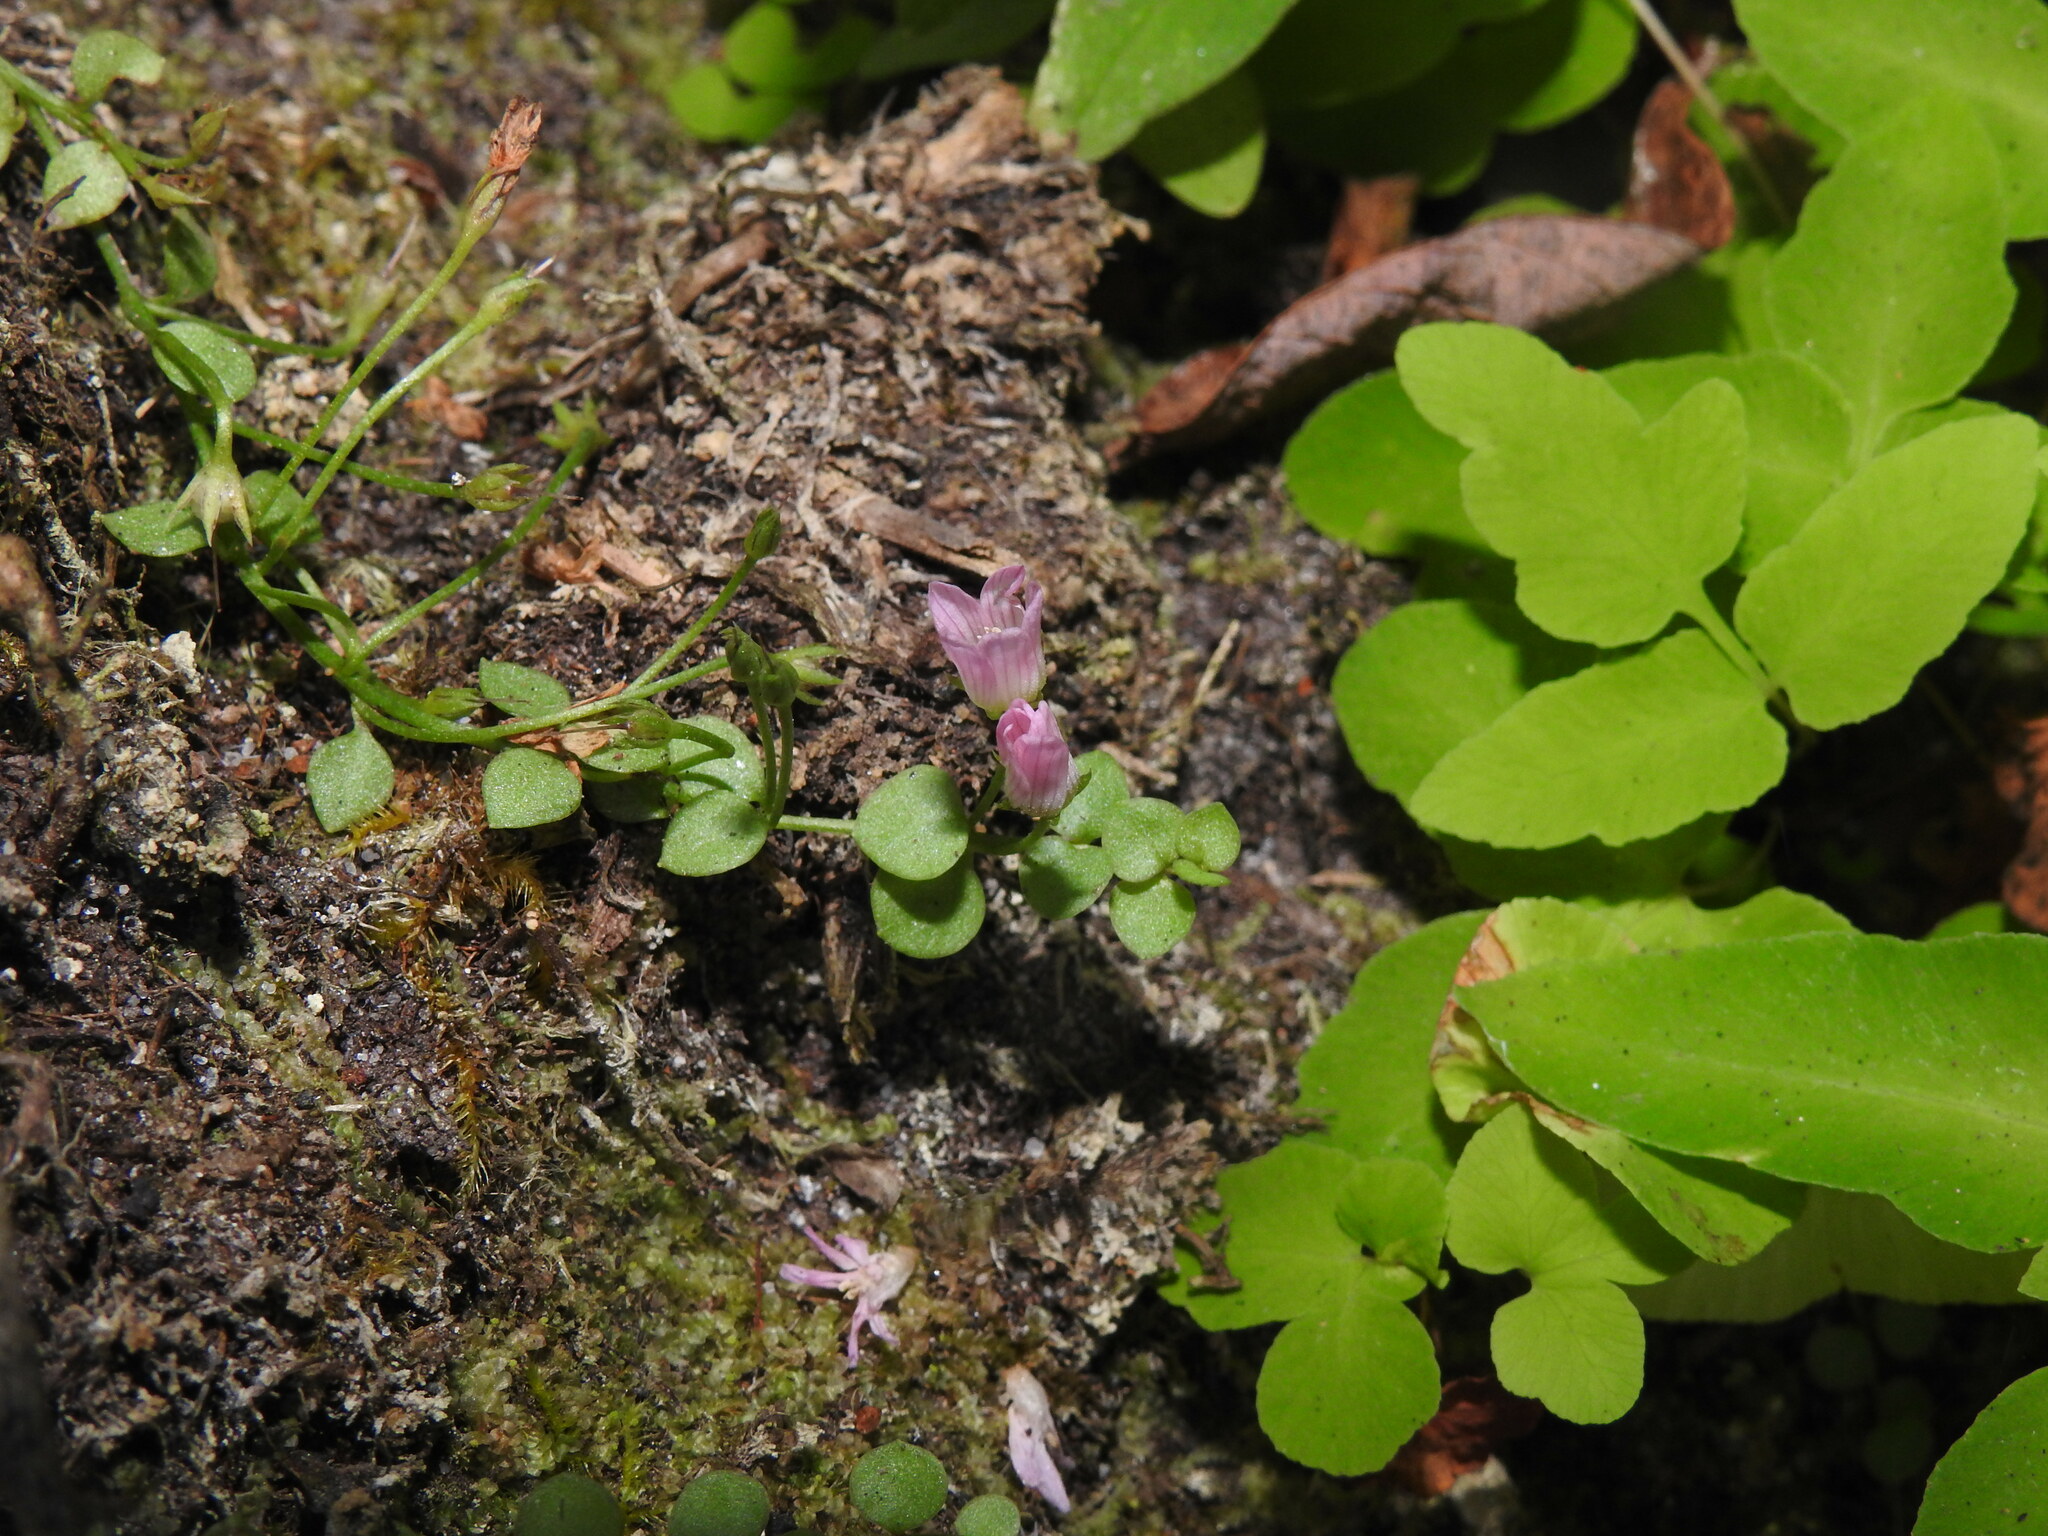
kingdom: Plantae
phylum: Tracheophyta
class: Magnoliopsida
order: Ericales
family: Primulaceae
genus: Lysimachia
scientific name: Lysimachia tenella
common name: European bog pimpernel
